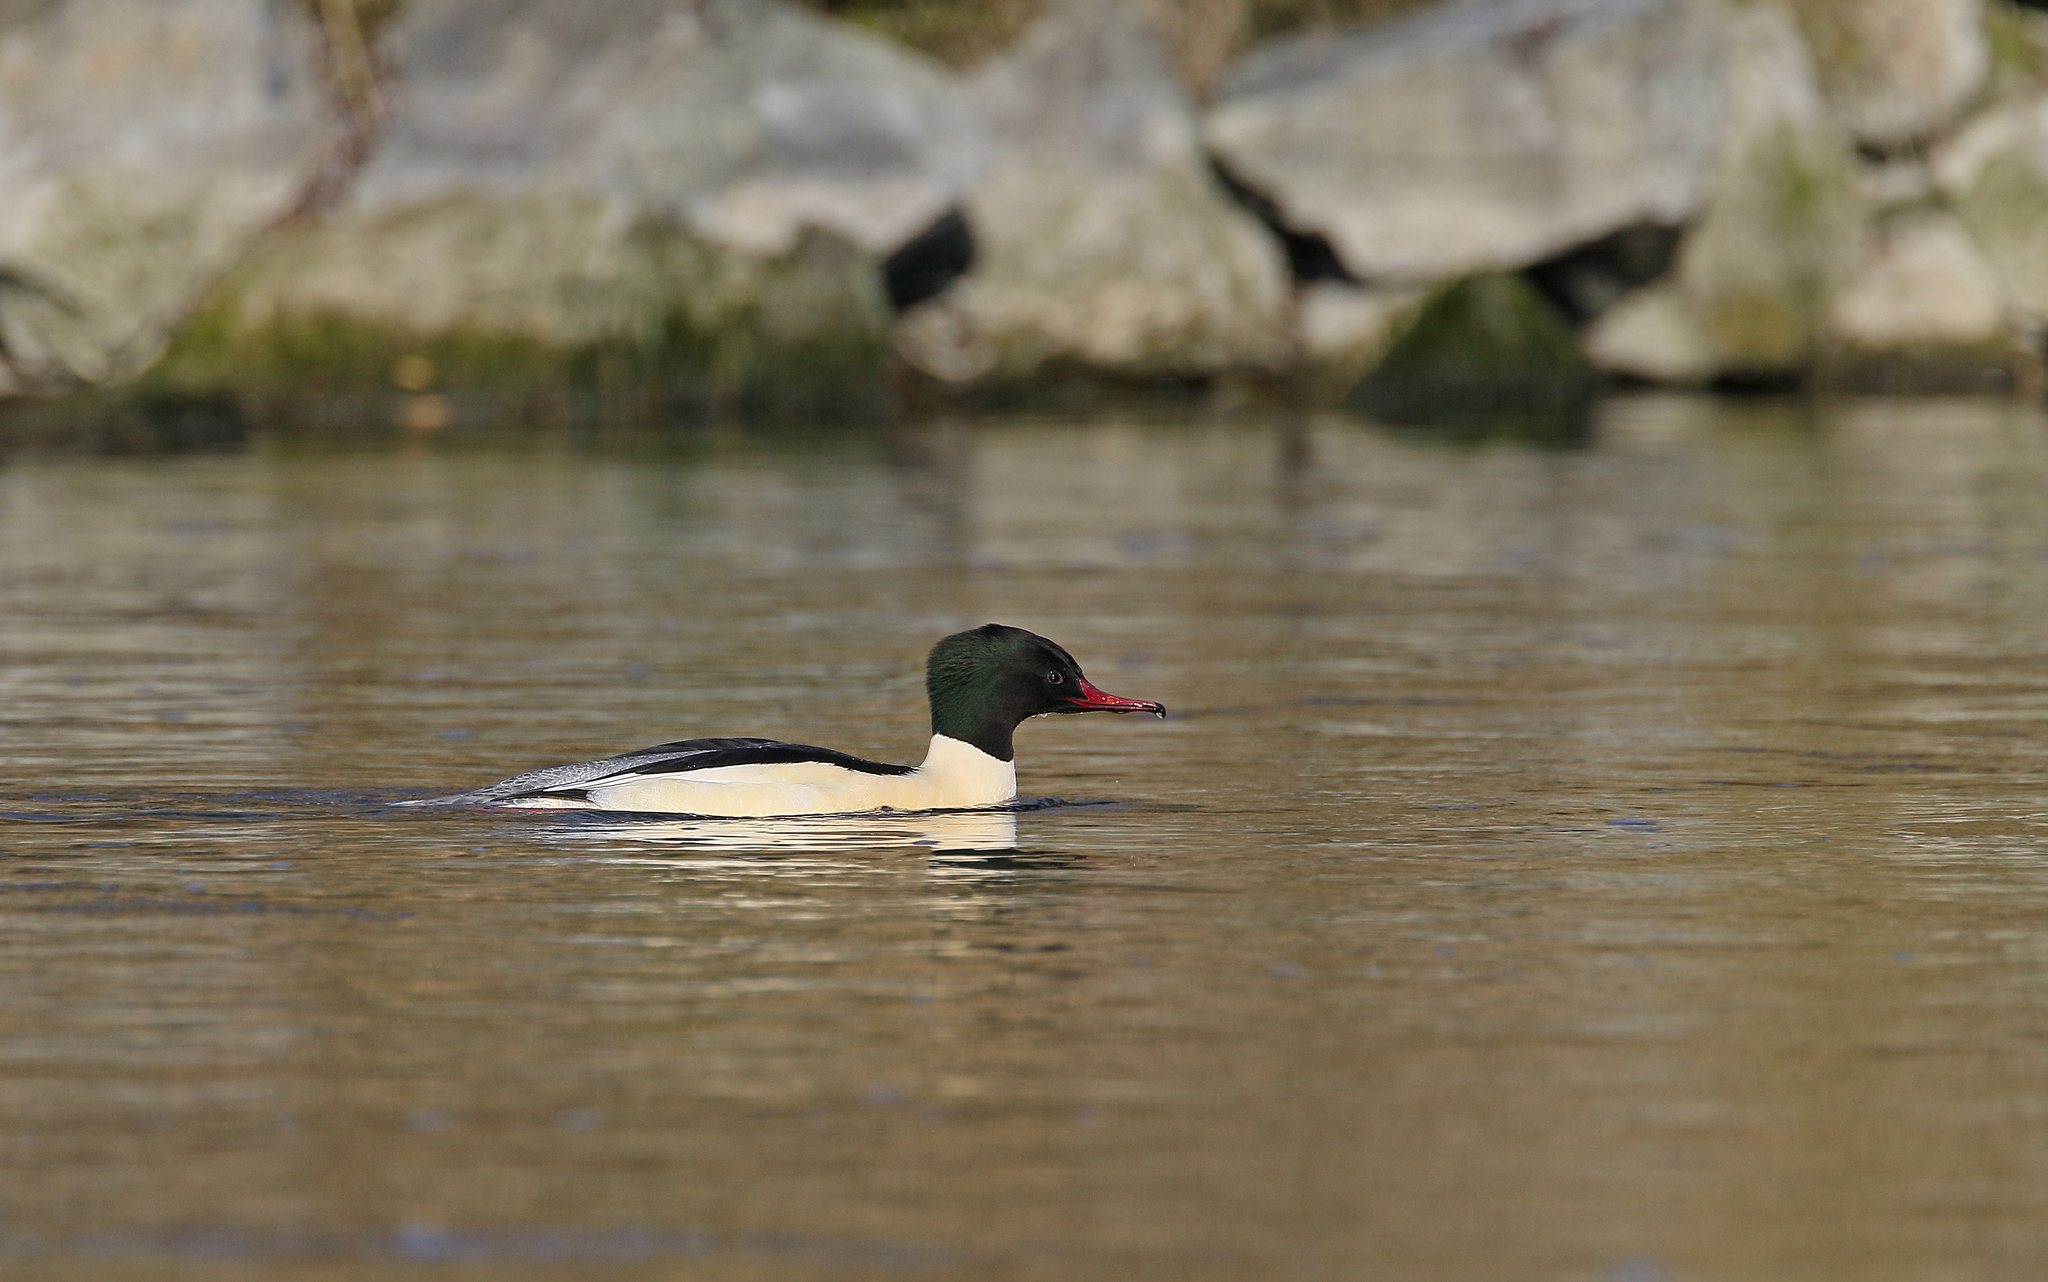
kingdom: Animalia
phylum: Chordata
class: Aves
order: Anseriformes
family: Anatidae
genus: Mergus
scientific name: Mergus merganser
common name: Common merganser
